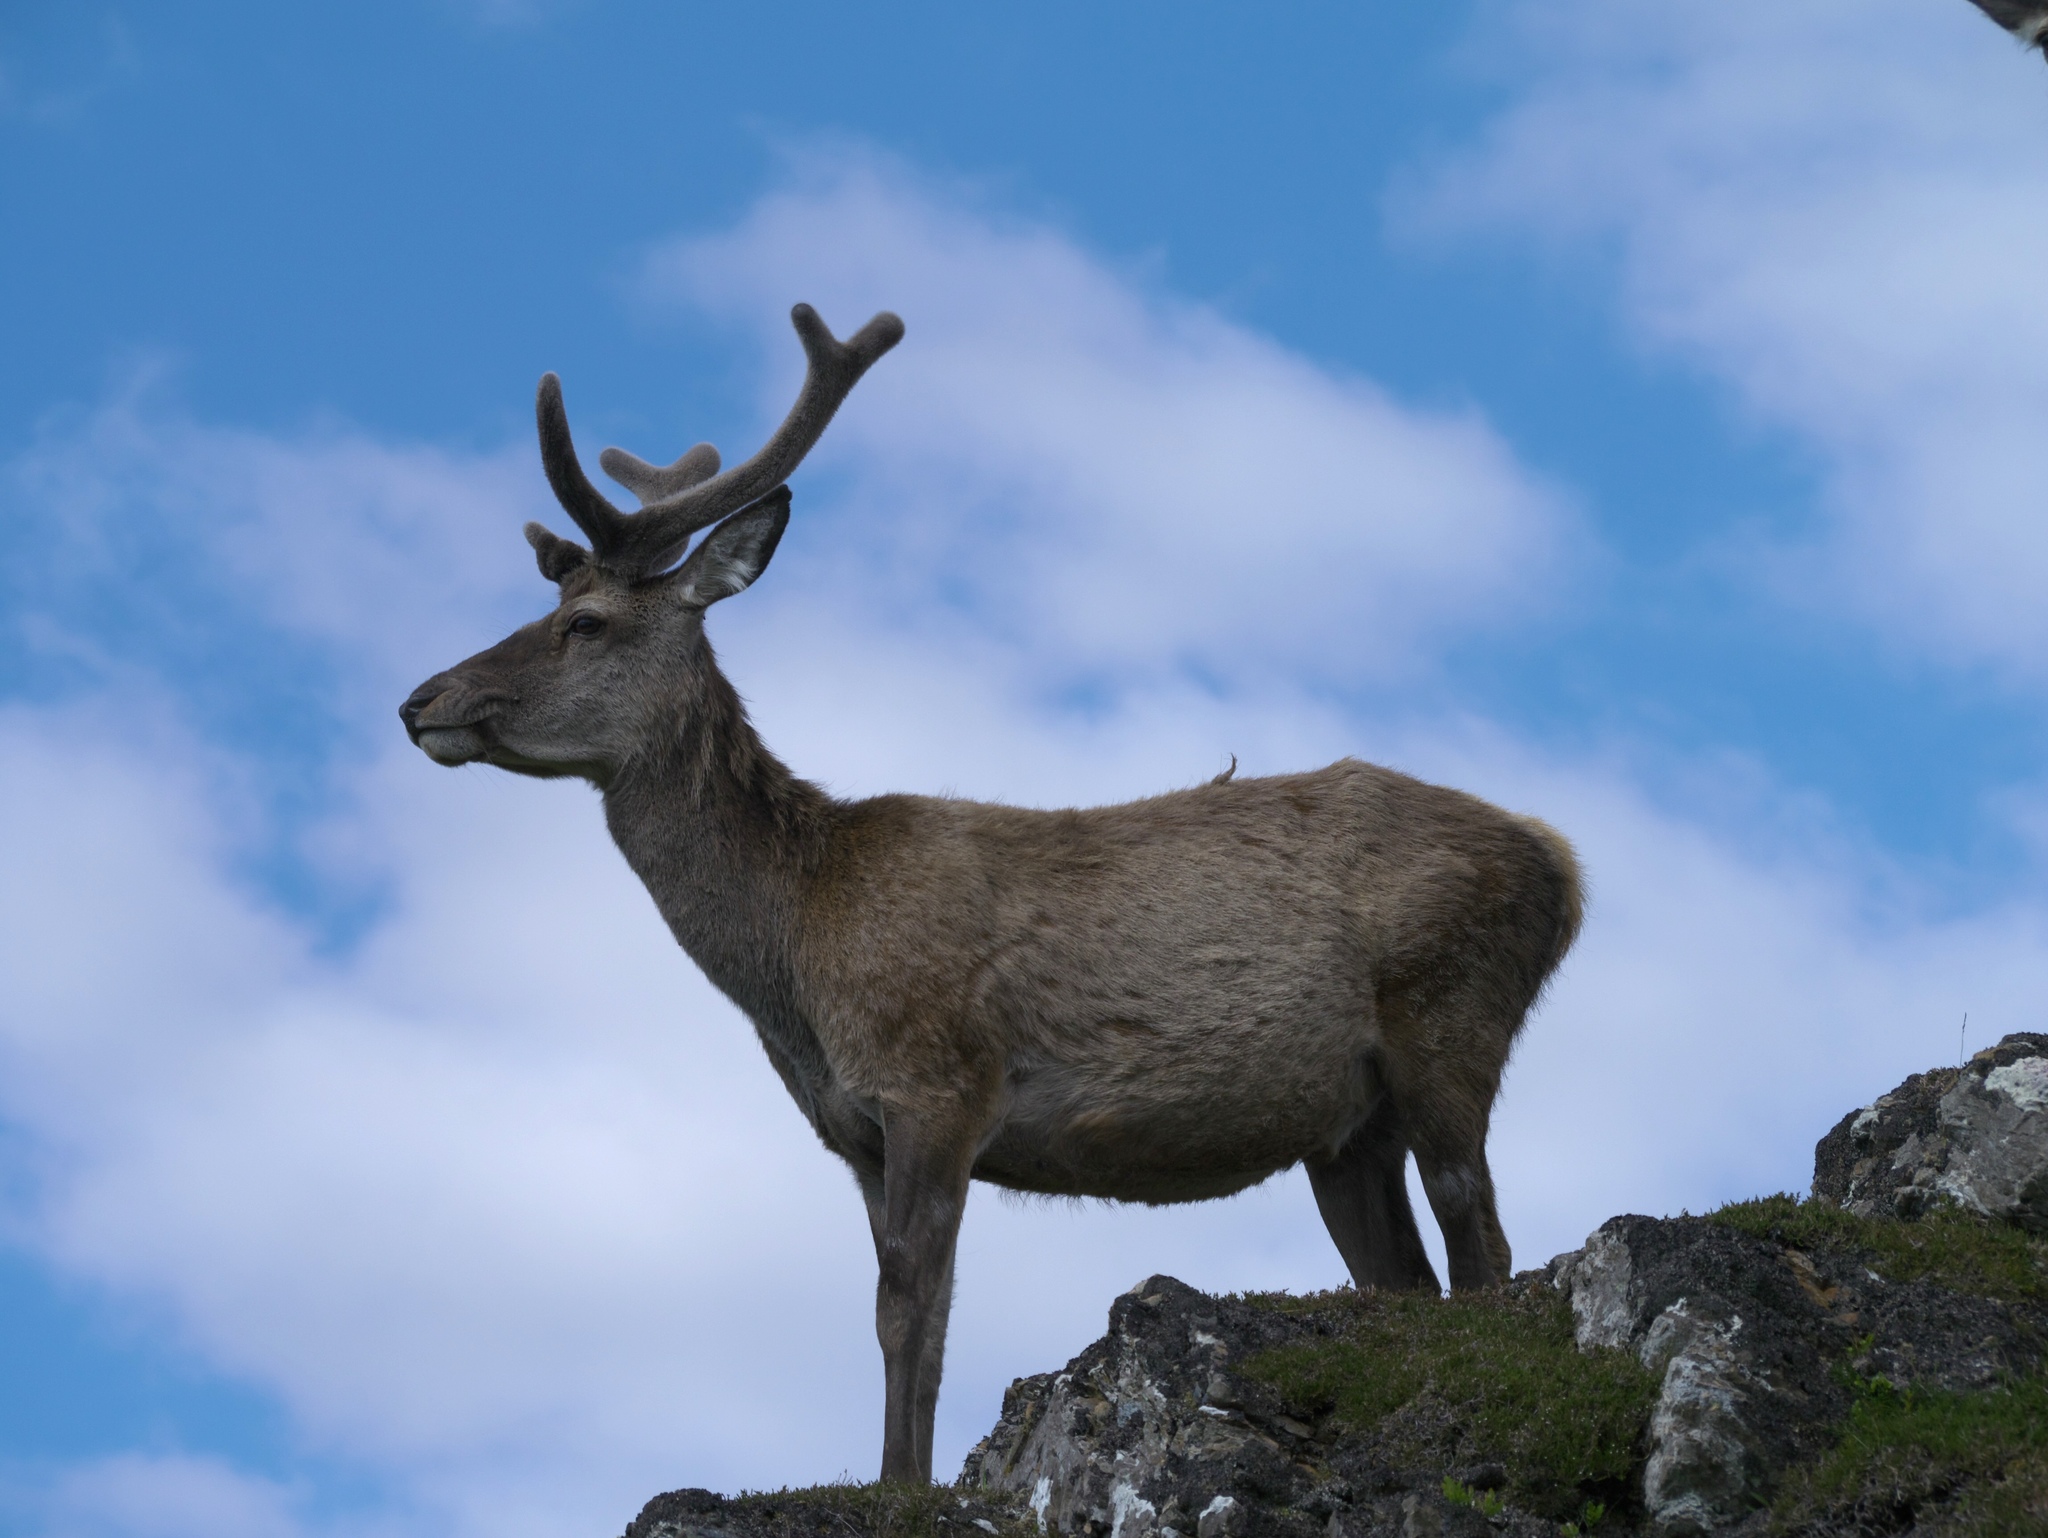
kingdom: Animalia
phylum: Chordata
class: Mammalia
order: Artiodactyla
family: Cervidae
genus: Cervus
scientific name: Cervus elaphus
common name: Red deer
